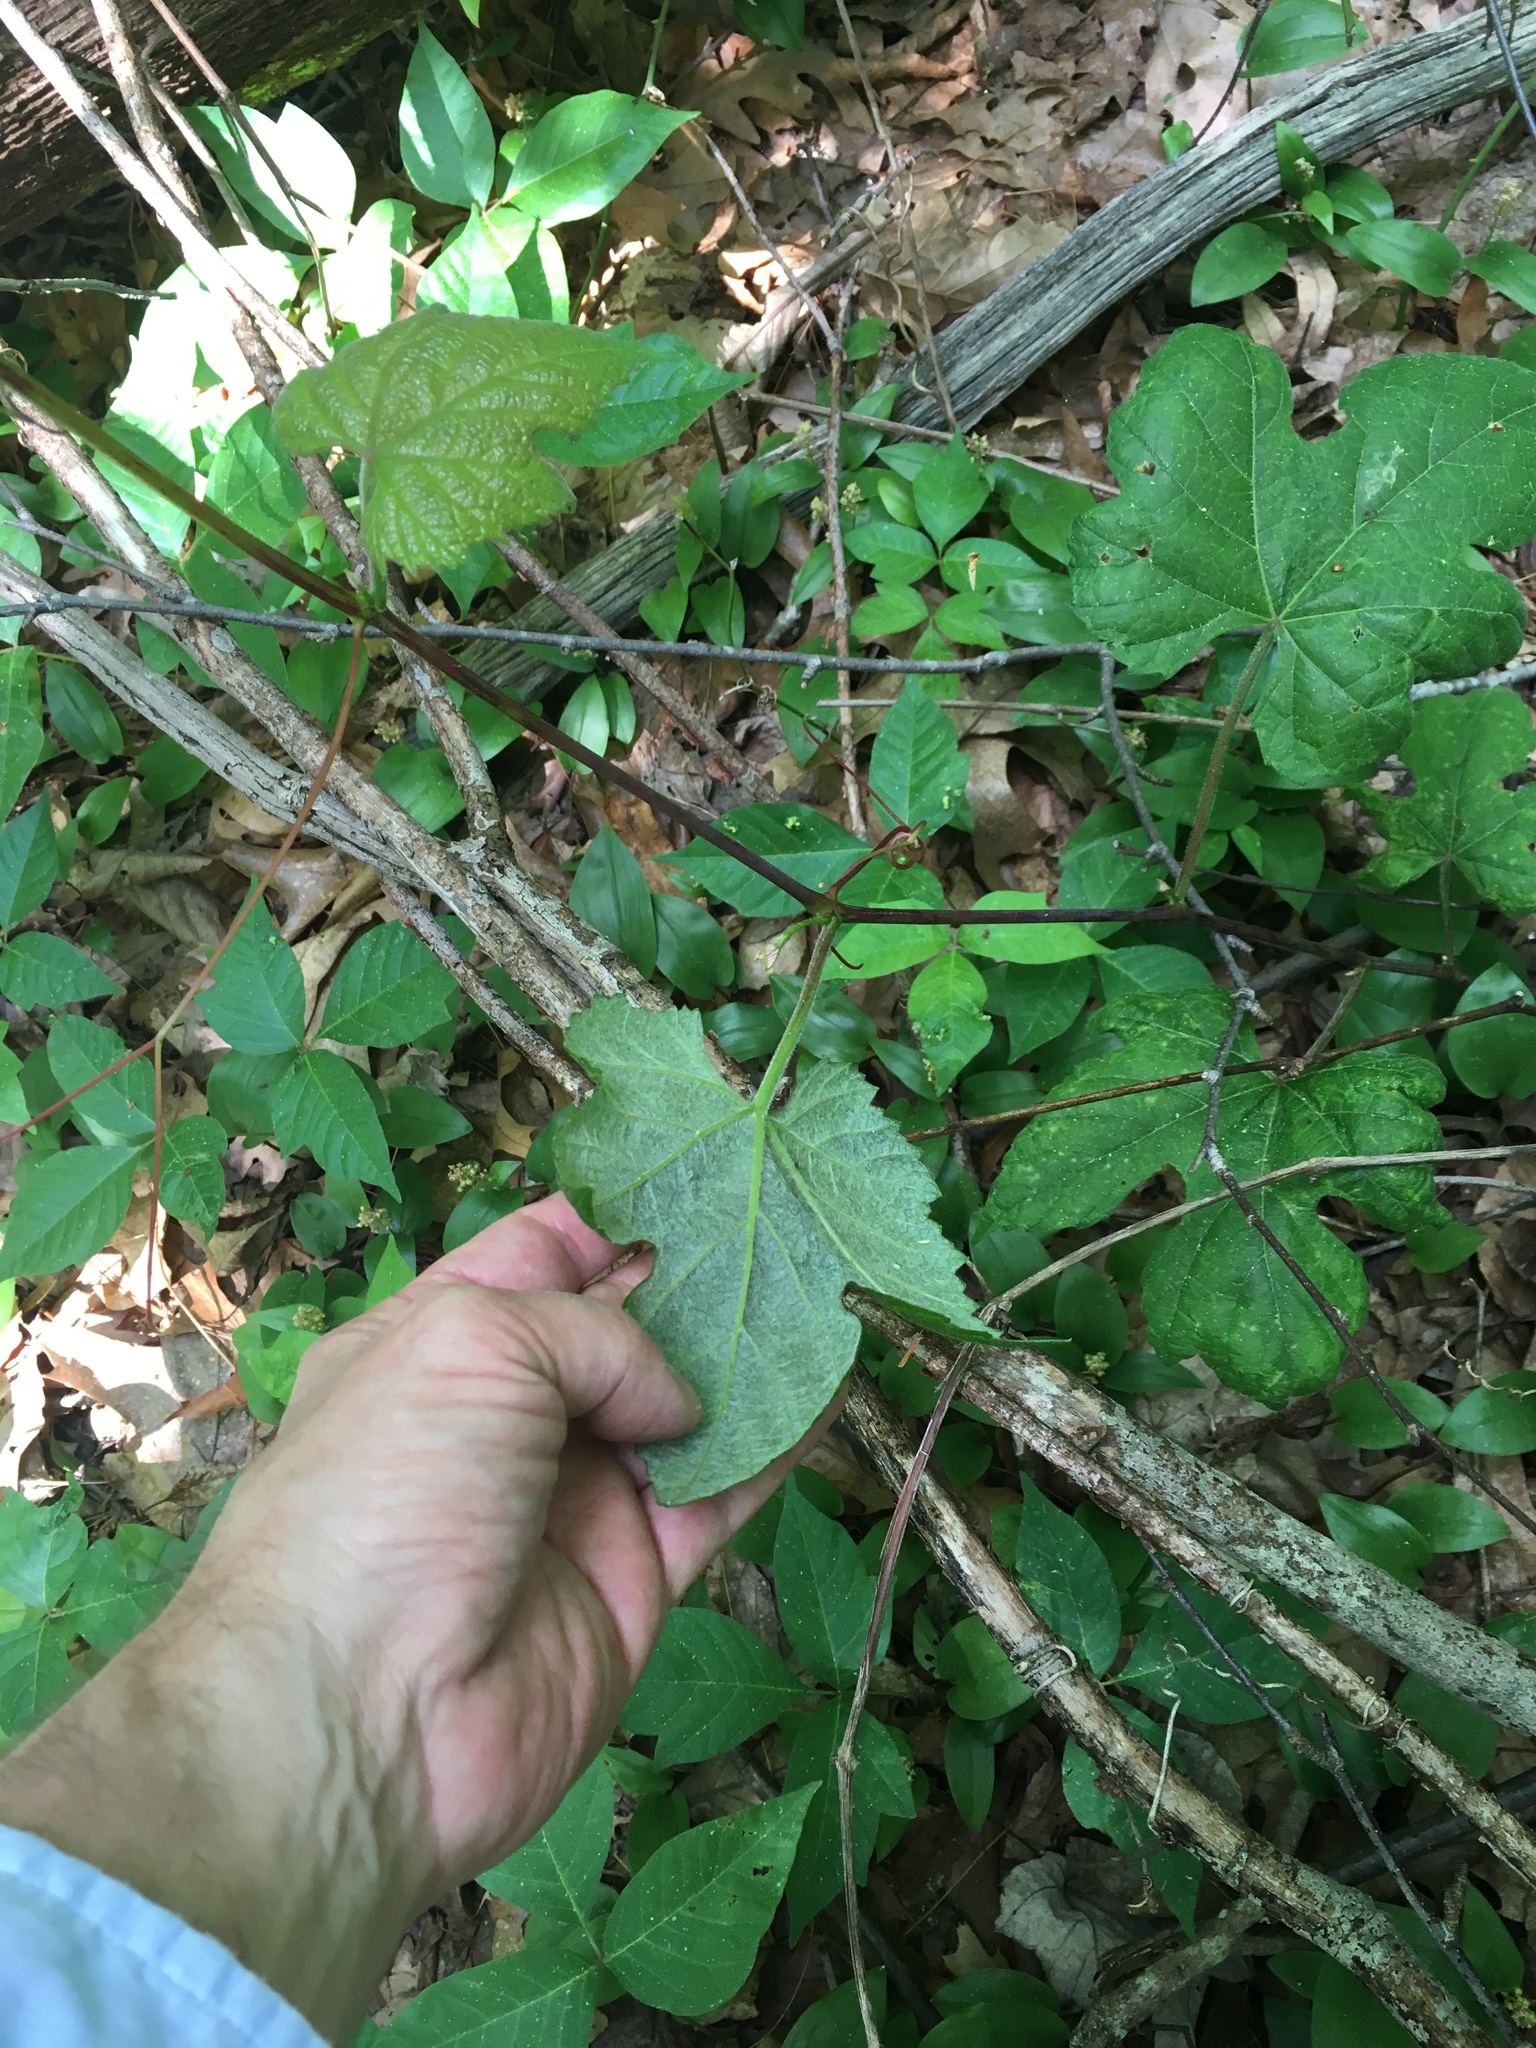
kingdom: Plantae
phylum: Tracheophyta
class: Magnoliopsida
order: Vitales
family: Vitaceae
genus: Vitis
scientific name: Vitis aestivalis
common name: Pigeon grape
